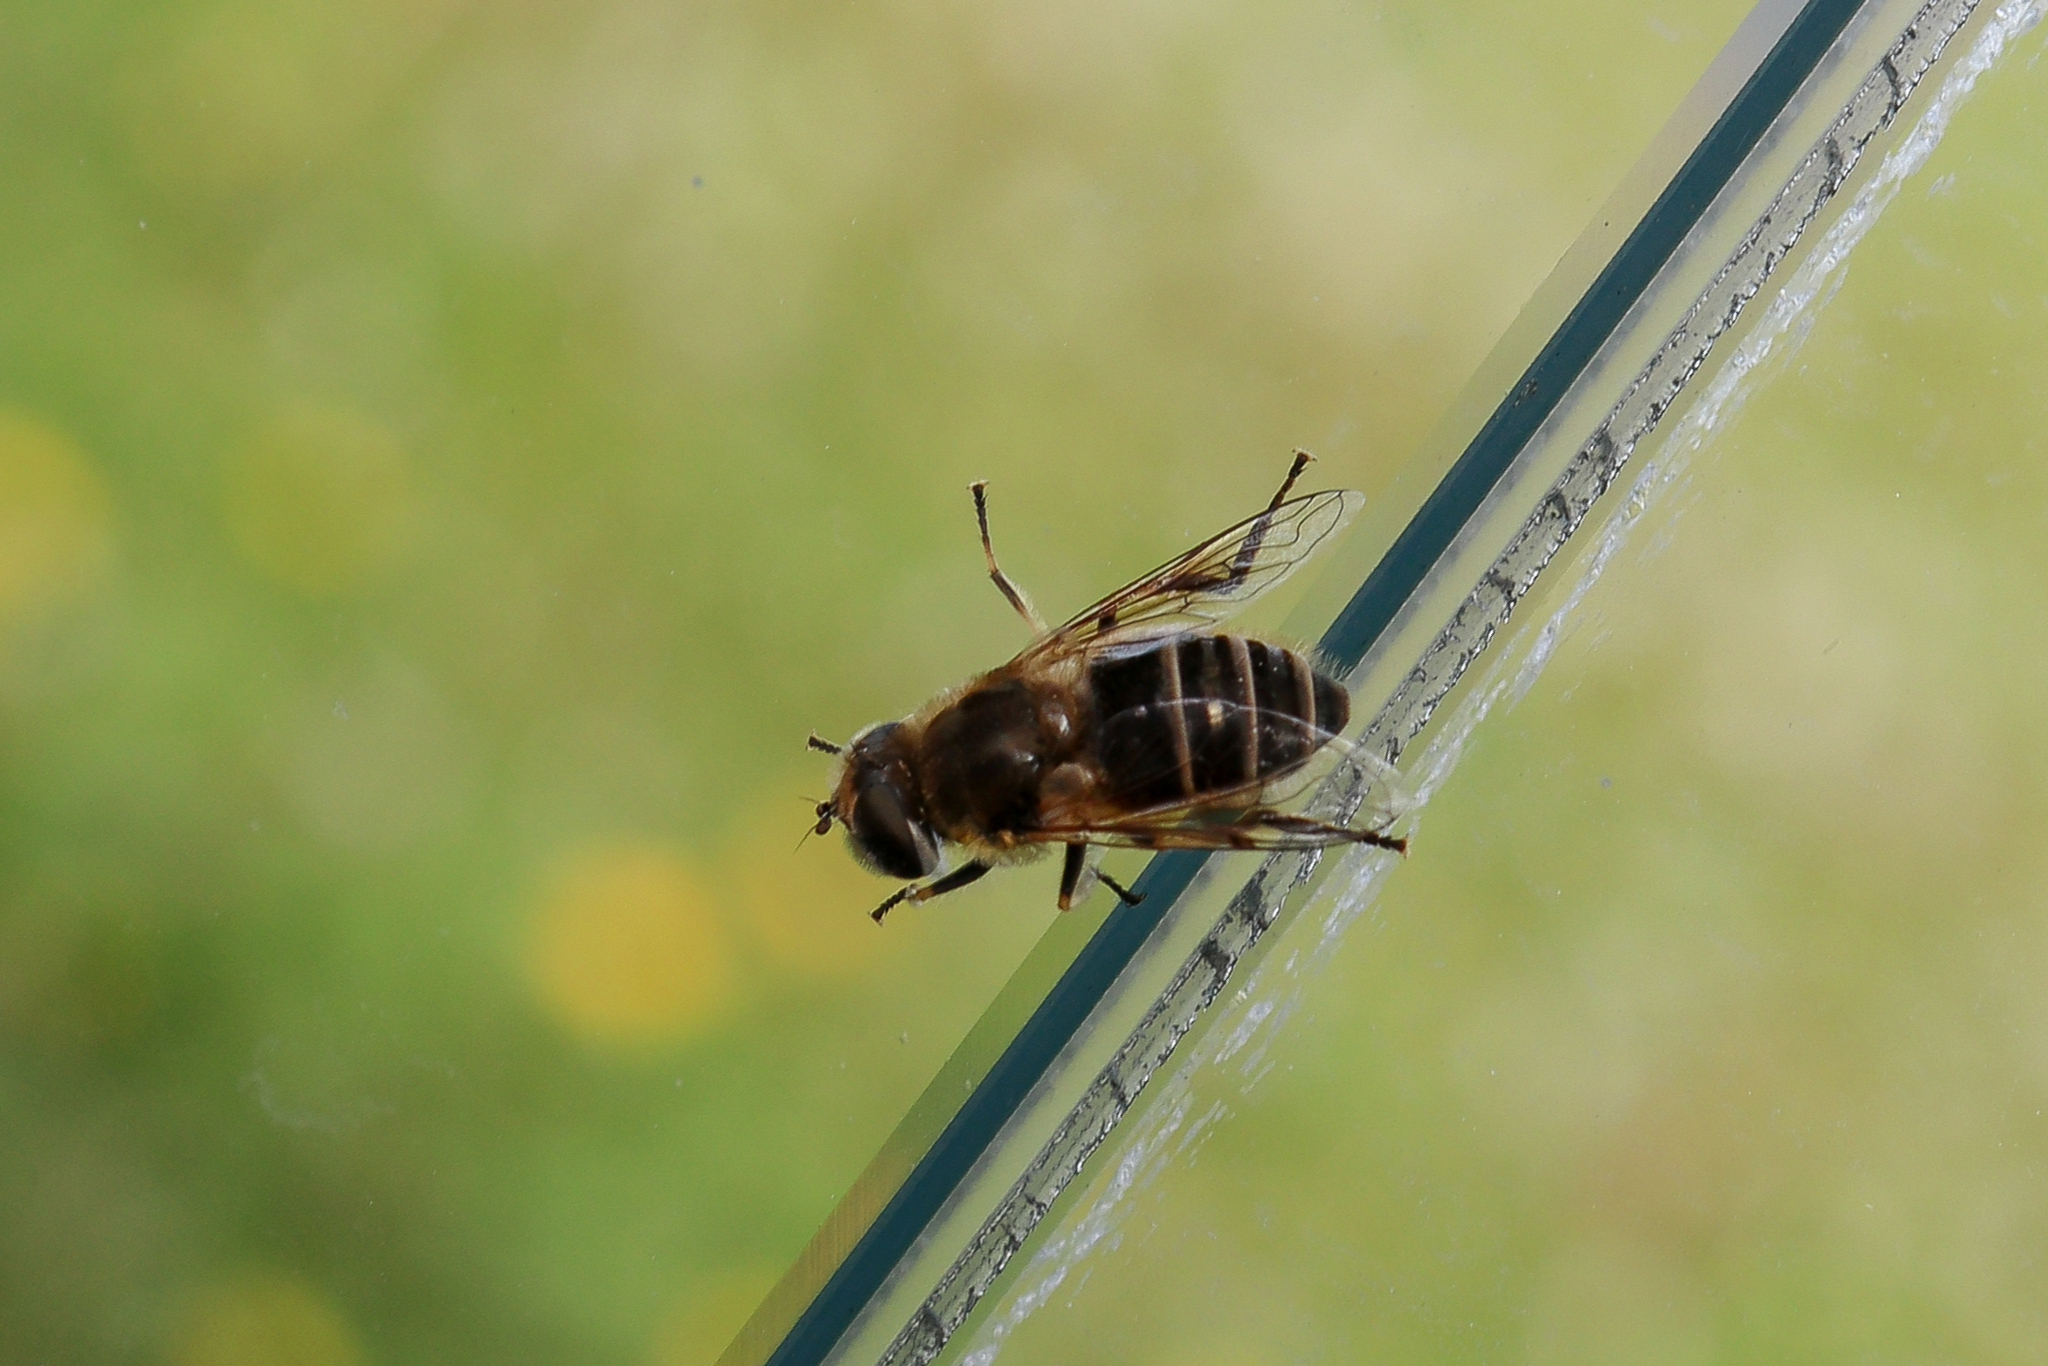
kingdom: Animalia
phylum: Arthropoda
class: Insecta
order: Diptera
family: Syrphidae
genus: Eristalis
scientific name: Eristalis arbustorum
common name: Hover fly
